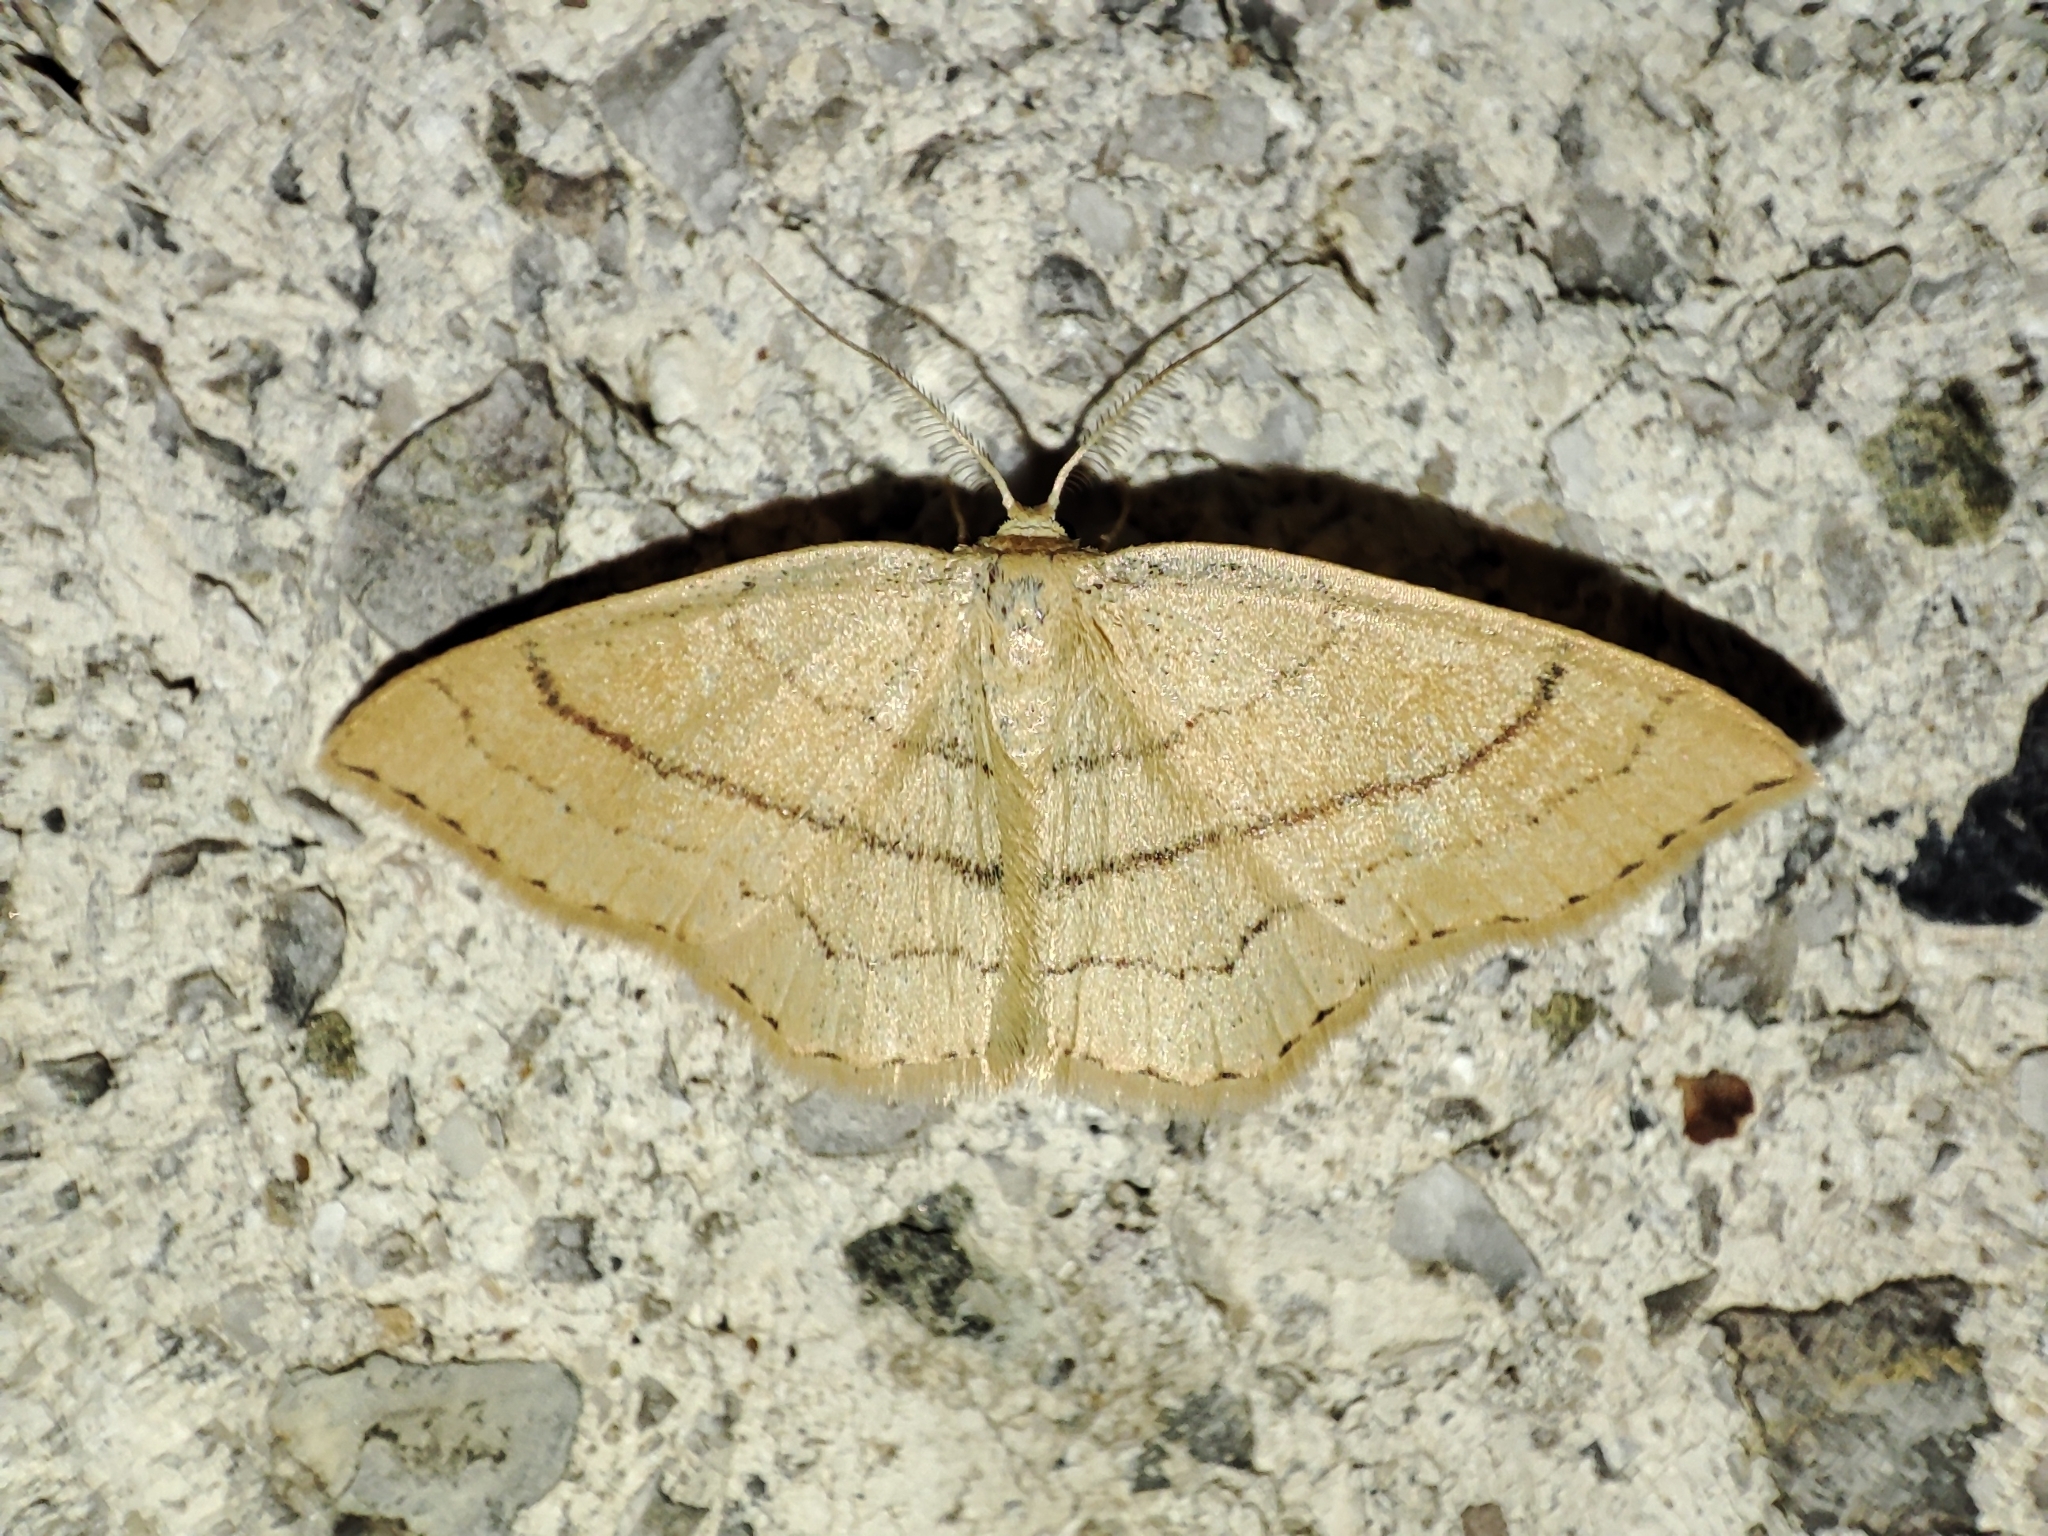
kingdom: Animalia
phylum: Arthropoda
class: Insecta
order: Lepidoptera
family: Geometridae
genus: Cyclophora
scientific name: Cyclophora linearia
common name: Clay triple-lines
